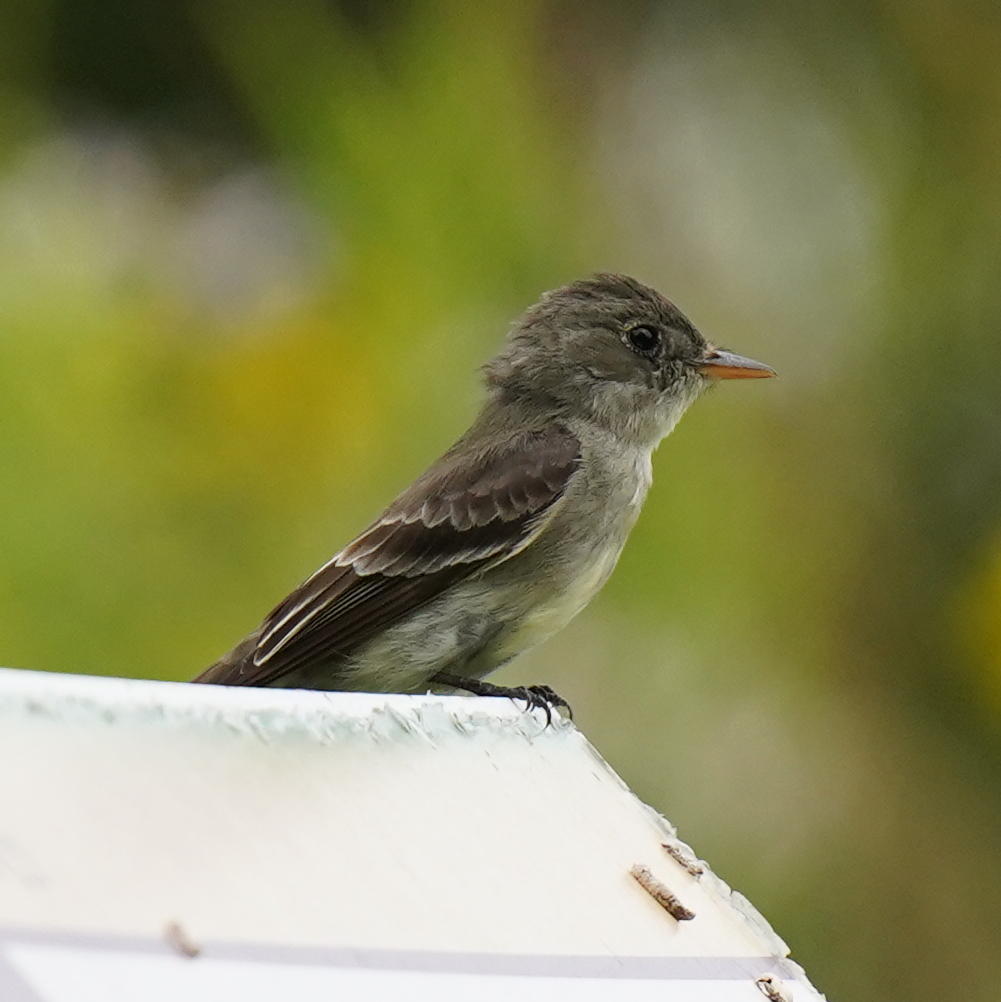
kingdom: Animalia
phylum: Chordata
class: Aves
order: Passeriformes
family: Tyrannidae
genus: Contopus
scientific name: Contopus virens
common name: Eastern wood-pewee
